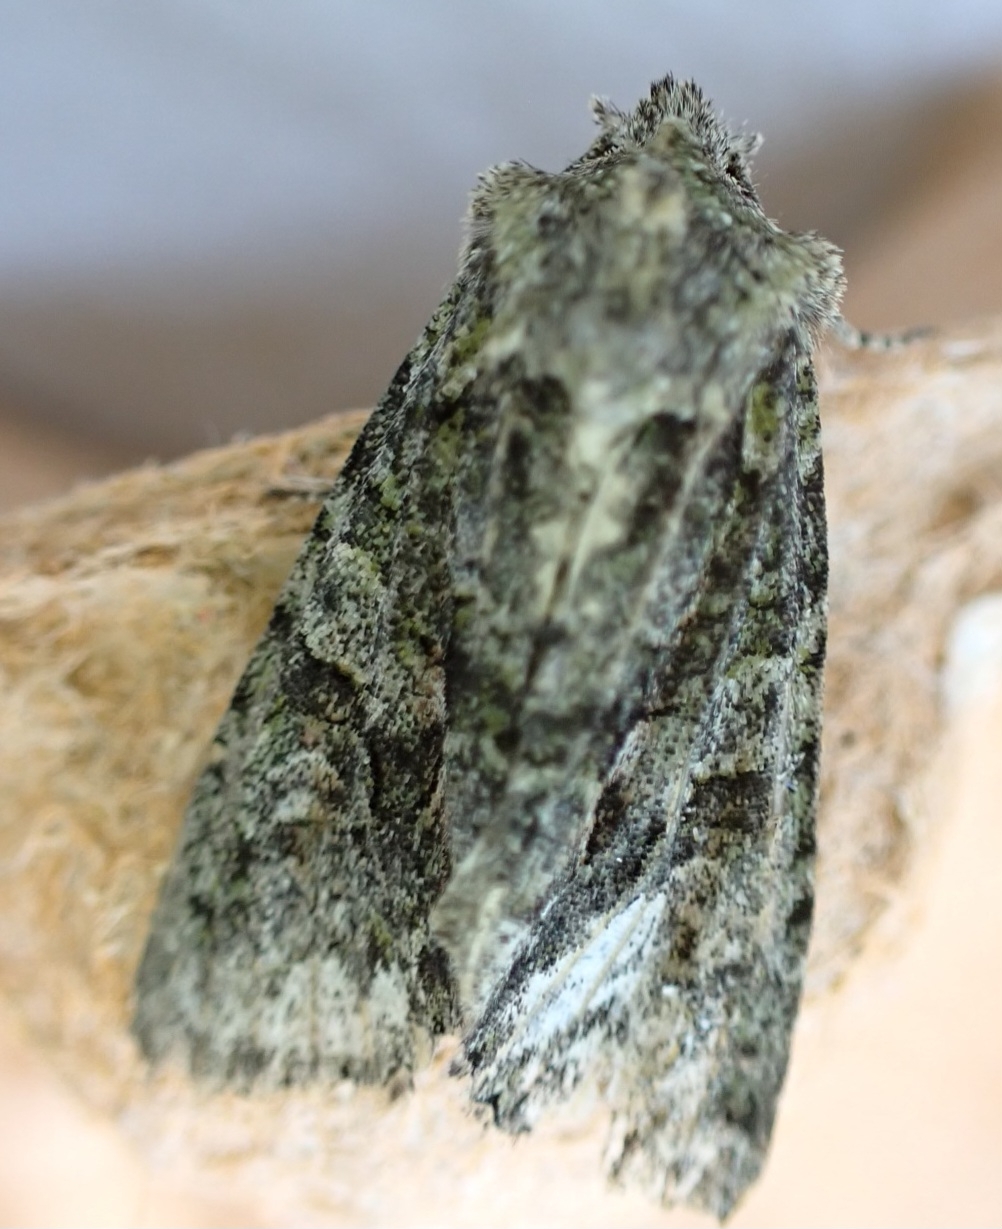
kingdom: Animalia
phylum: Arthropoda
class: Insecta
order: Lepidoptera
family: Noctuidae
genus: Dryobotodes
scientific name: Dryobotodes eremita
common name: Brindled green
